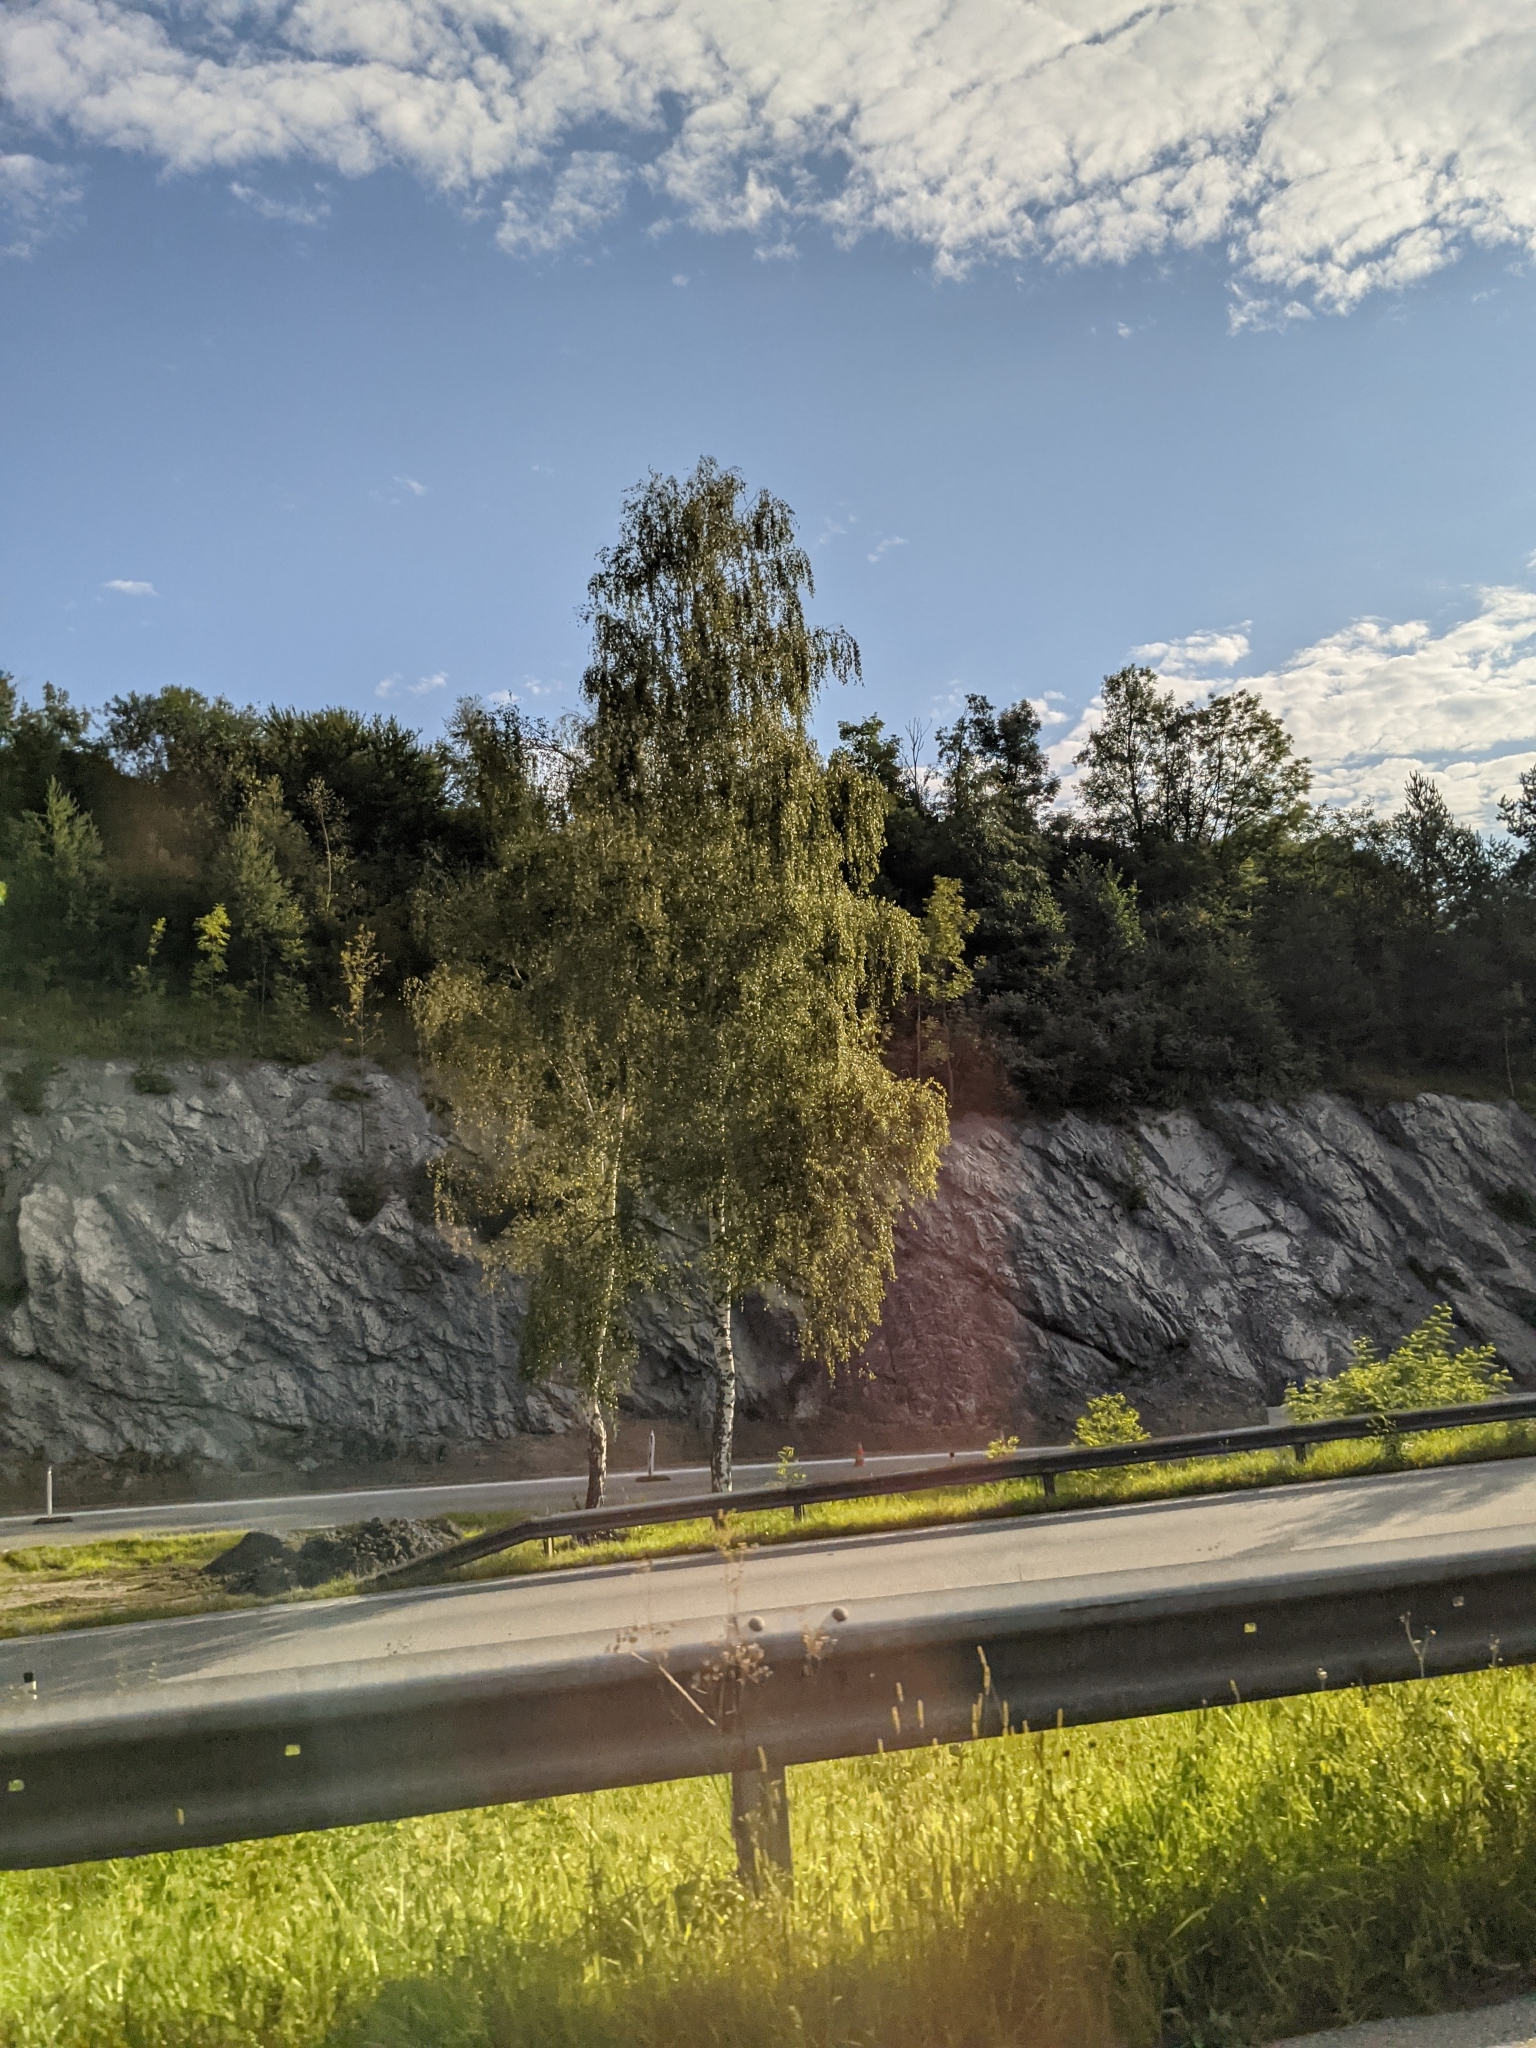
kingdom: Plantae
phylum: Tracheophyta
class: Magnoliopsida
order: Fagales
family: Betulaceae
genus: Betula
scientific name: Betula pendula
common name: Silver birch
